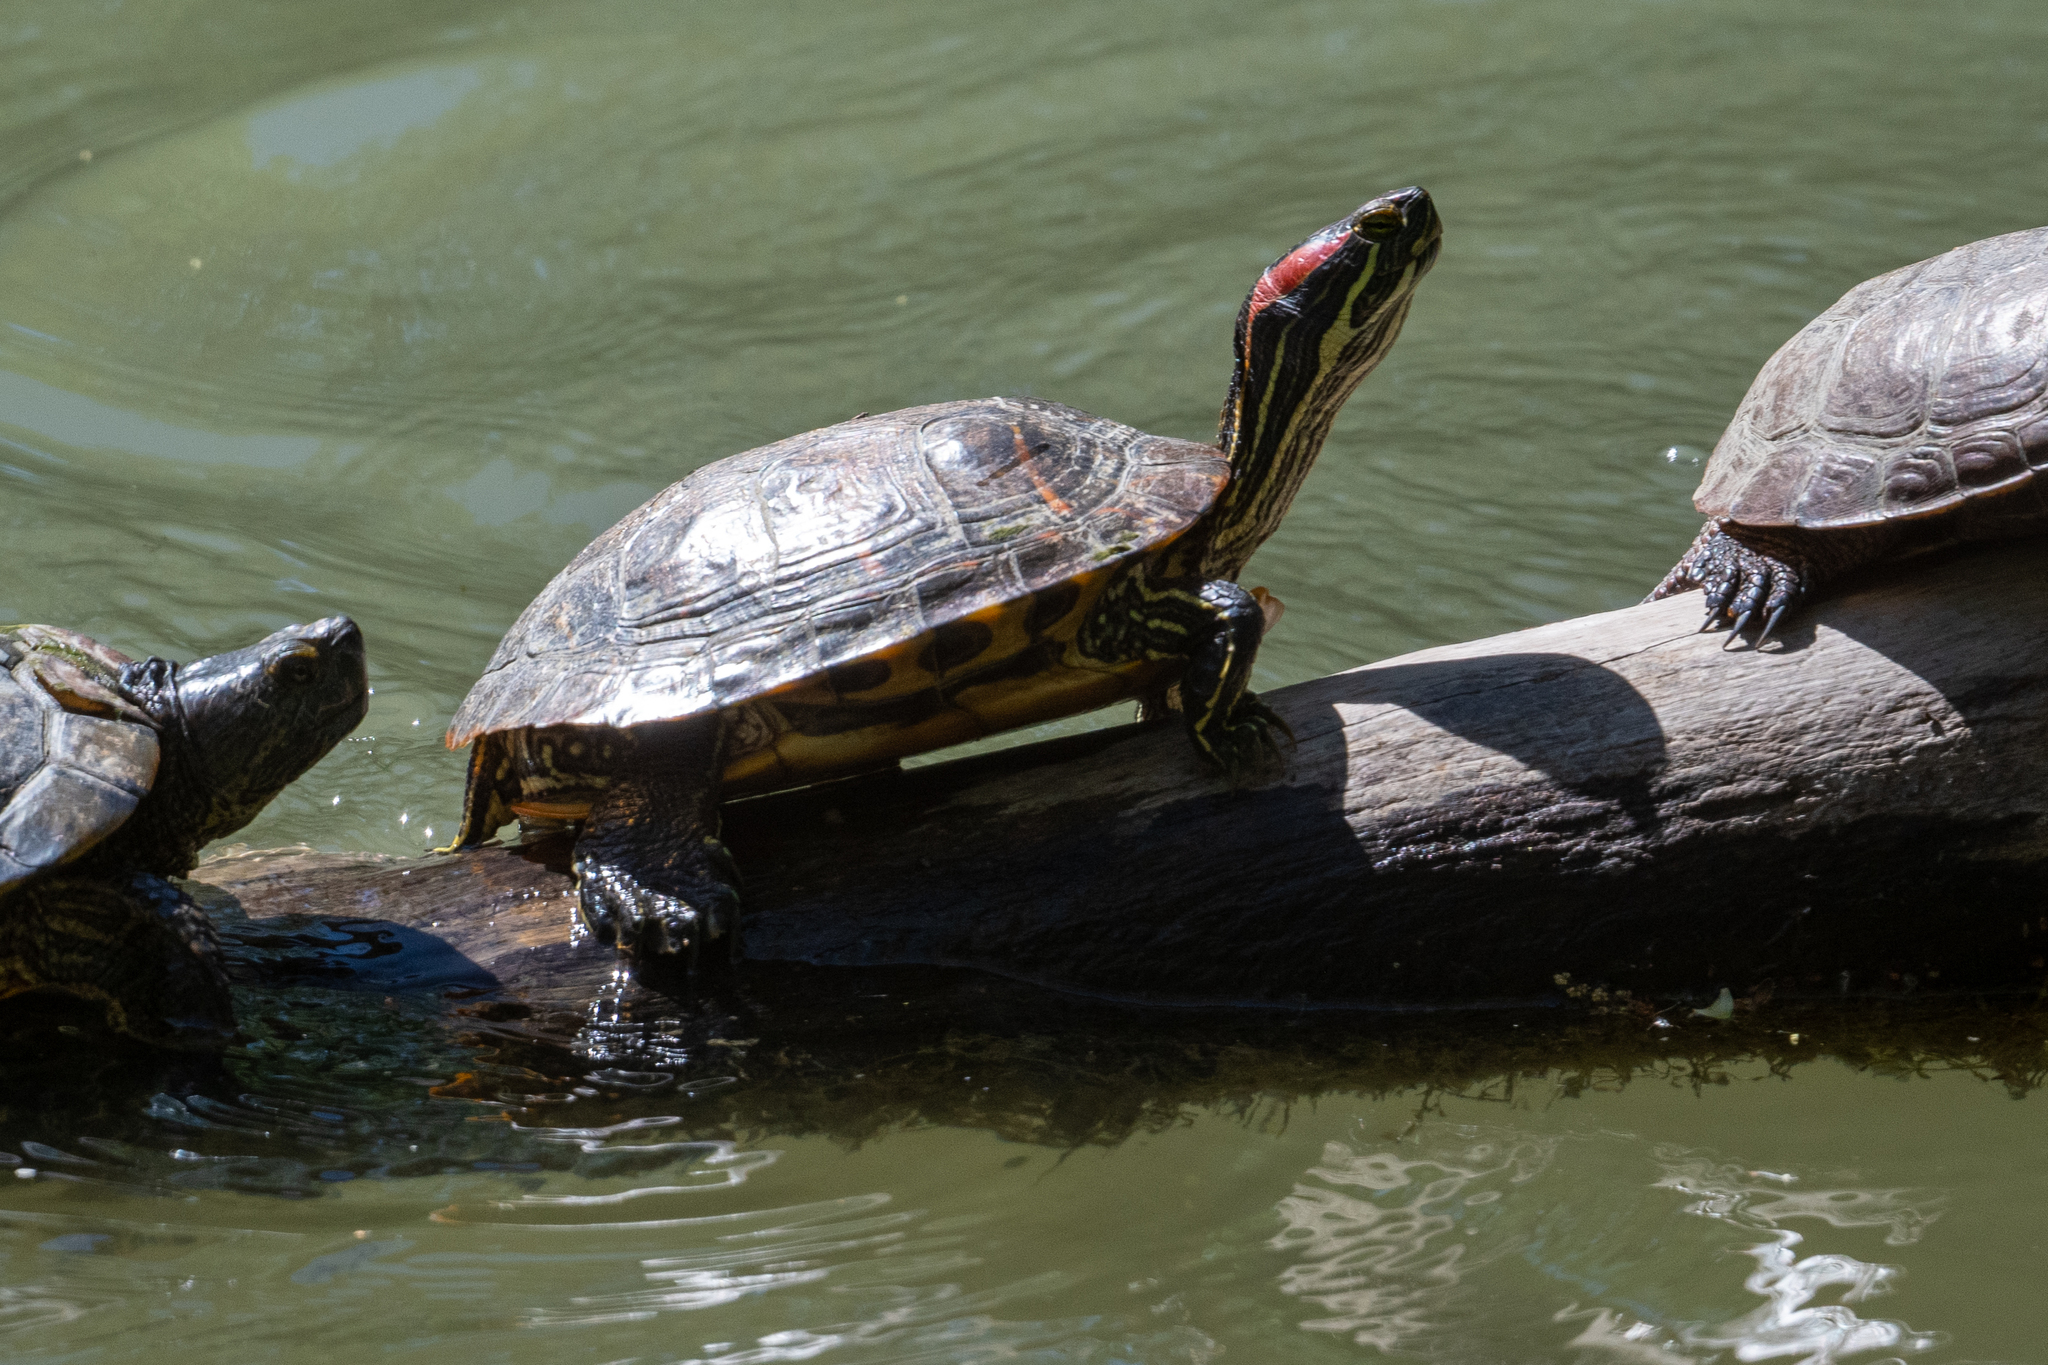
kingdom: Animalia
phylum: Chordata
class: Testudines
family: Emydidae
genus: Trachemys
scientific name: Trachemys scripta
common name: Slider
